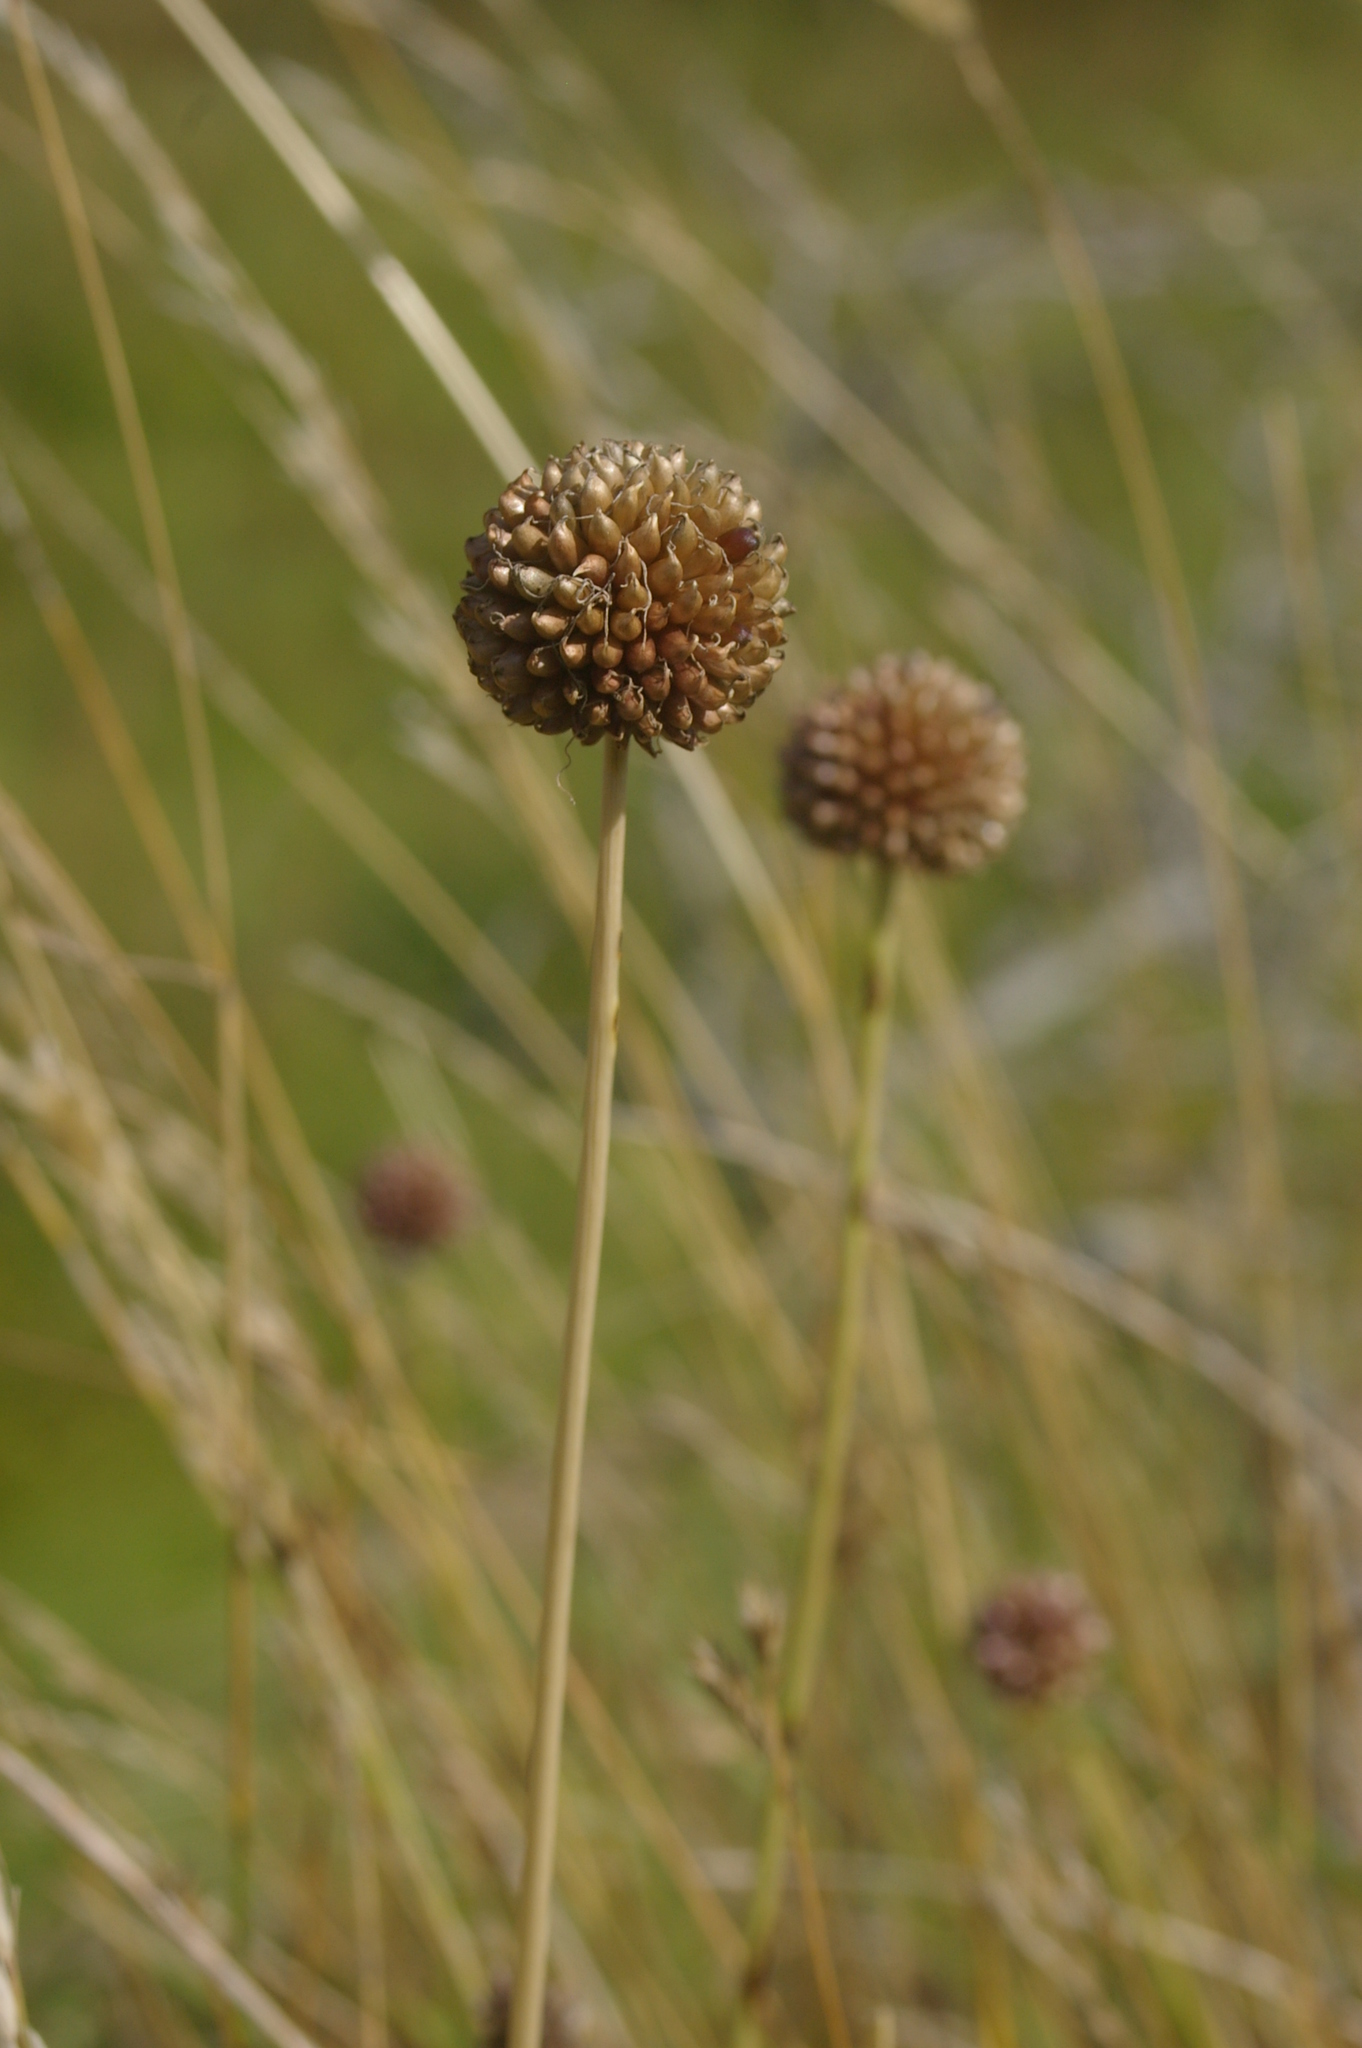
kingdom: Plantae
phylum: Tracheophyta
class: Liliopsida
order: Asparagales
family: Amaryllidaceae
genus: Allium
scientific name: Allium vineale
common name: Crow garlic
